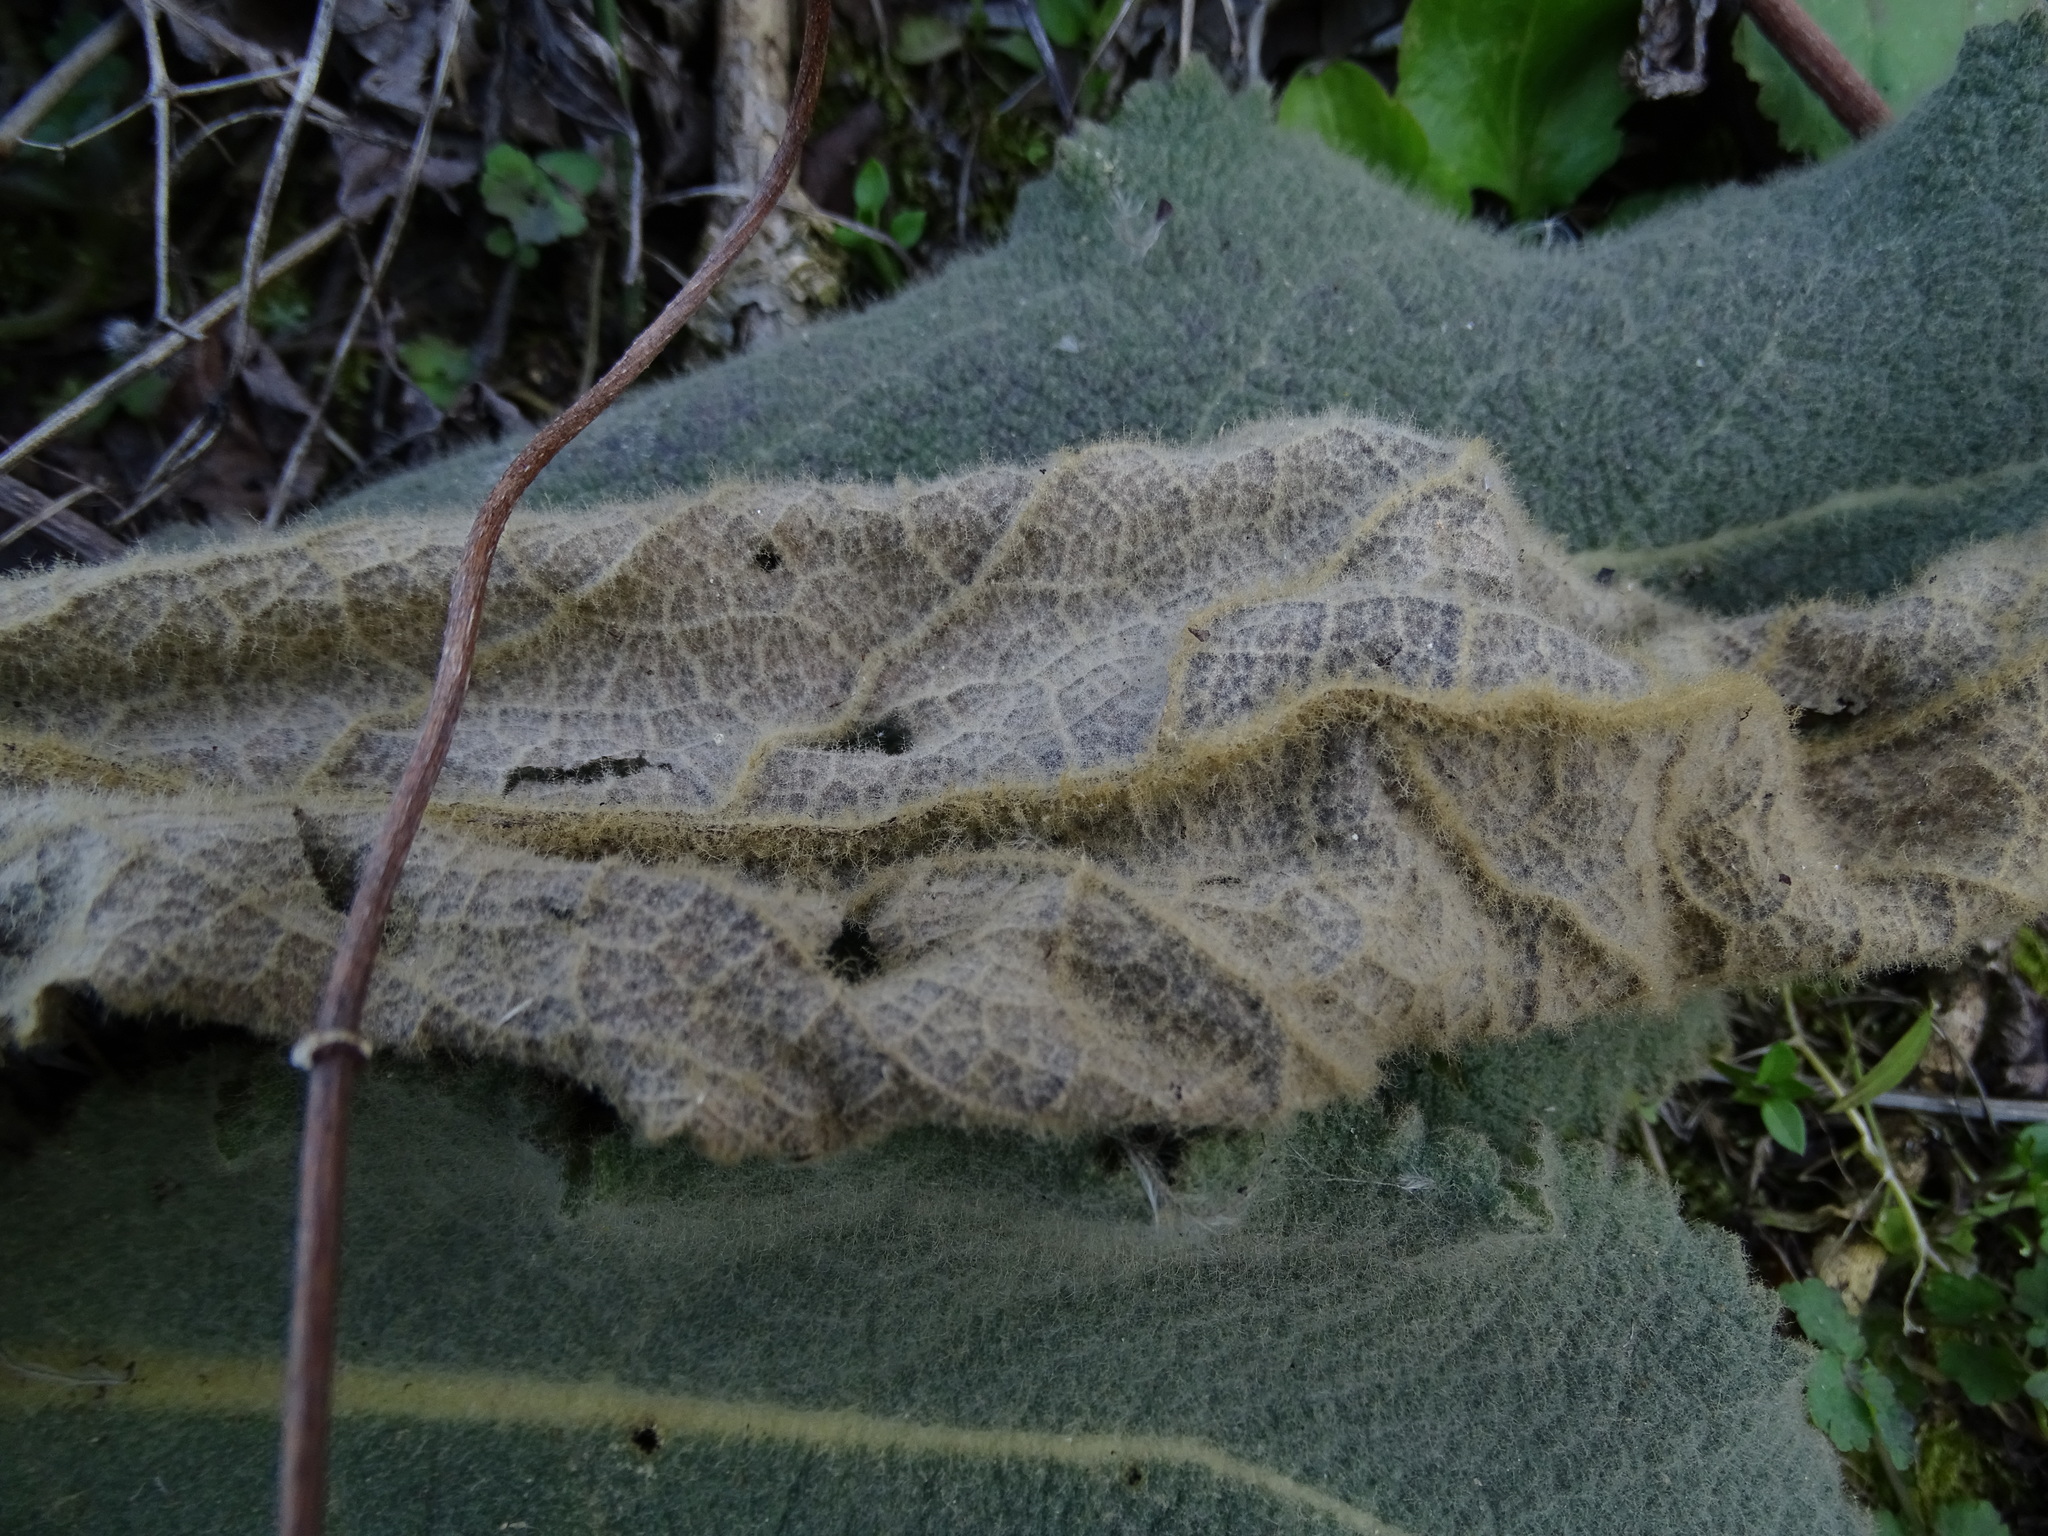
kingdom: Plantae
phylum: Tracheophyta
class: Magnoliopsida
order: Lamiales
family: Scrophulariaceae
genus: Verbascum
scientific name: Verbascum
